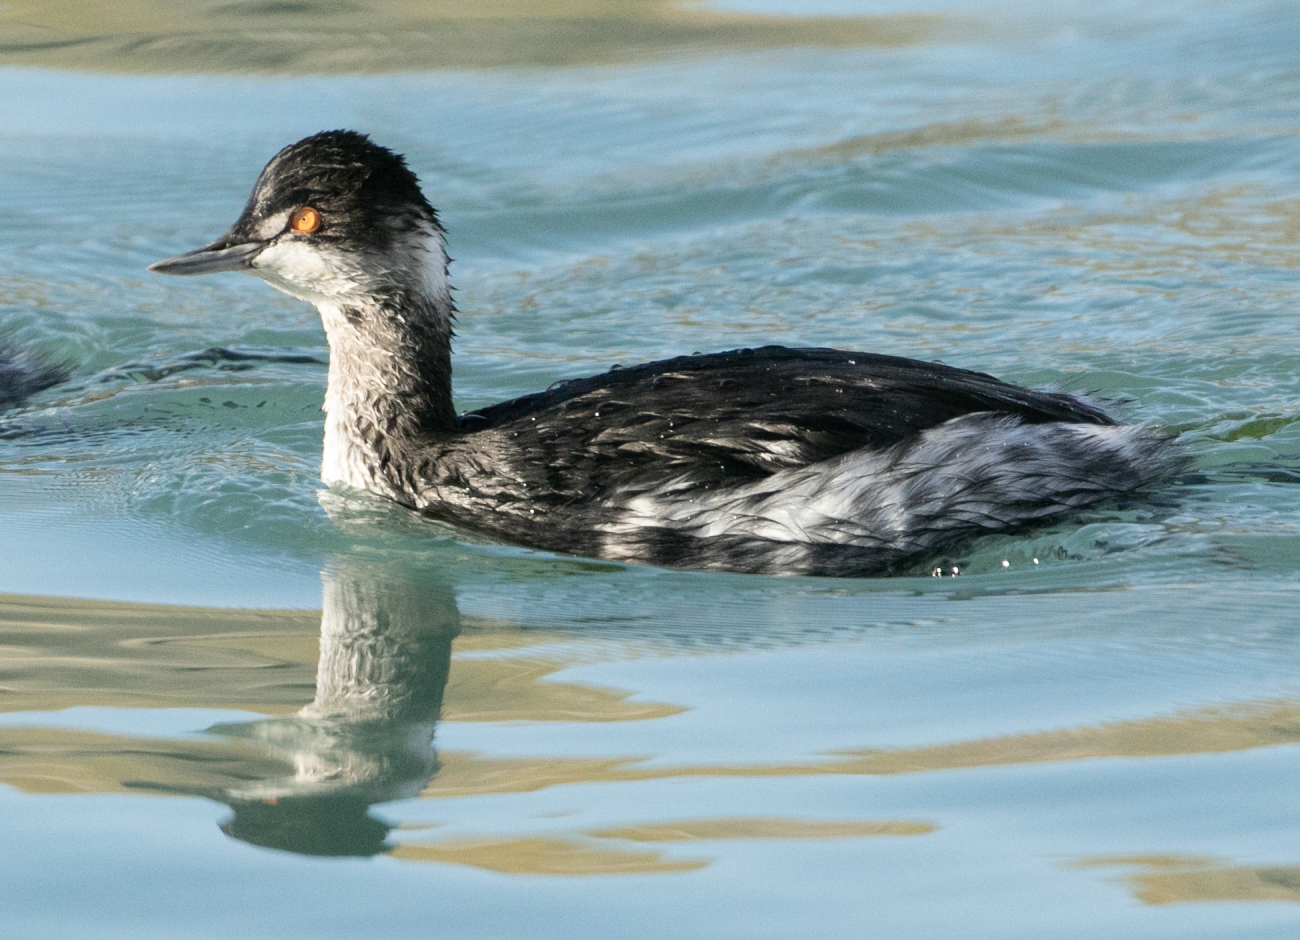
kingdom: Animalia
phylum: Chordata
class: Aves
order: Podicipediformes
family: Podicipedidae
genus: Podiceps
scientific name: Podiceps nigricollis
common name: Black-necked grebe
